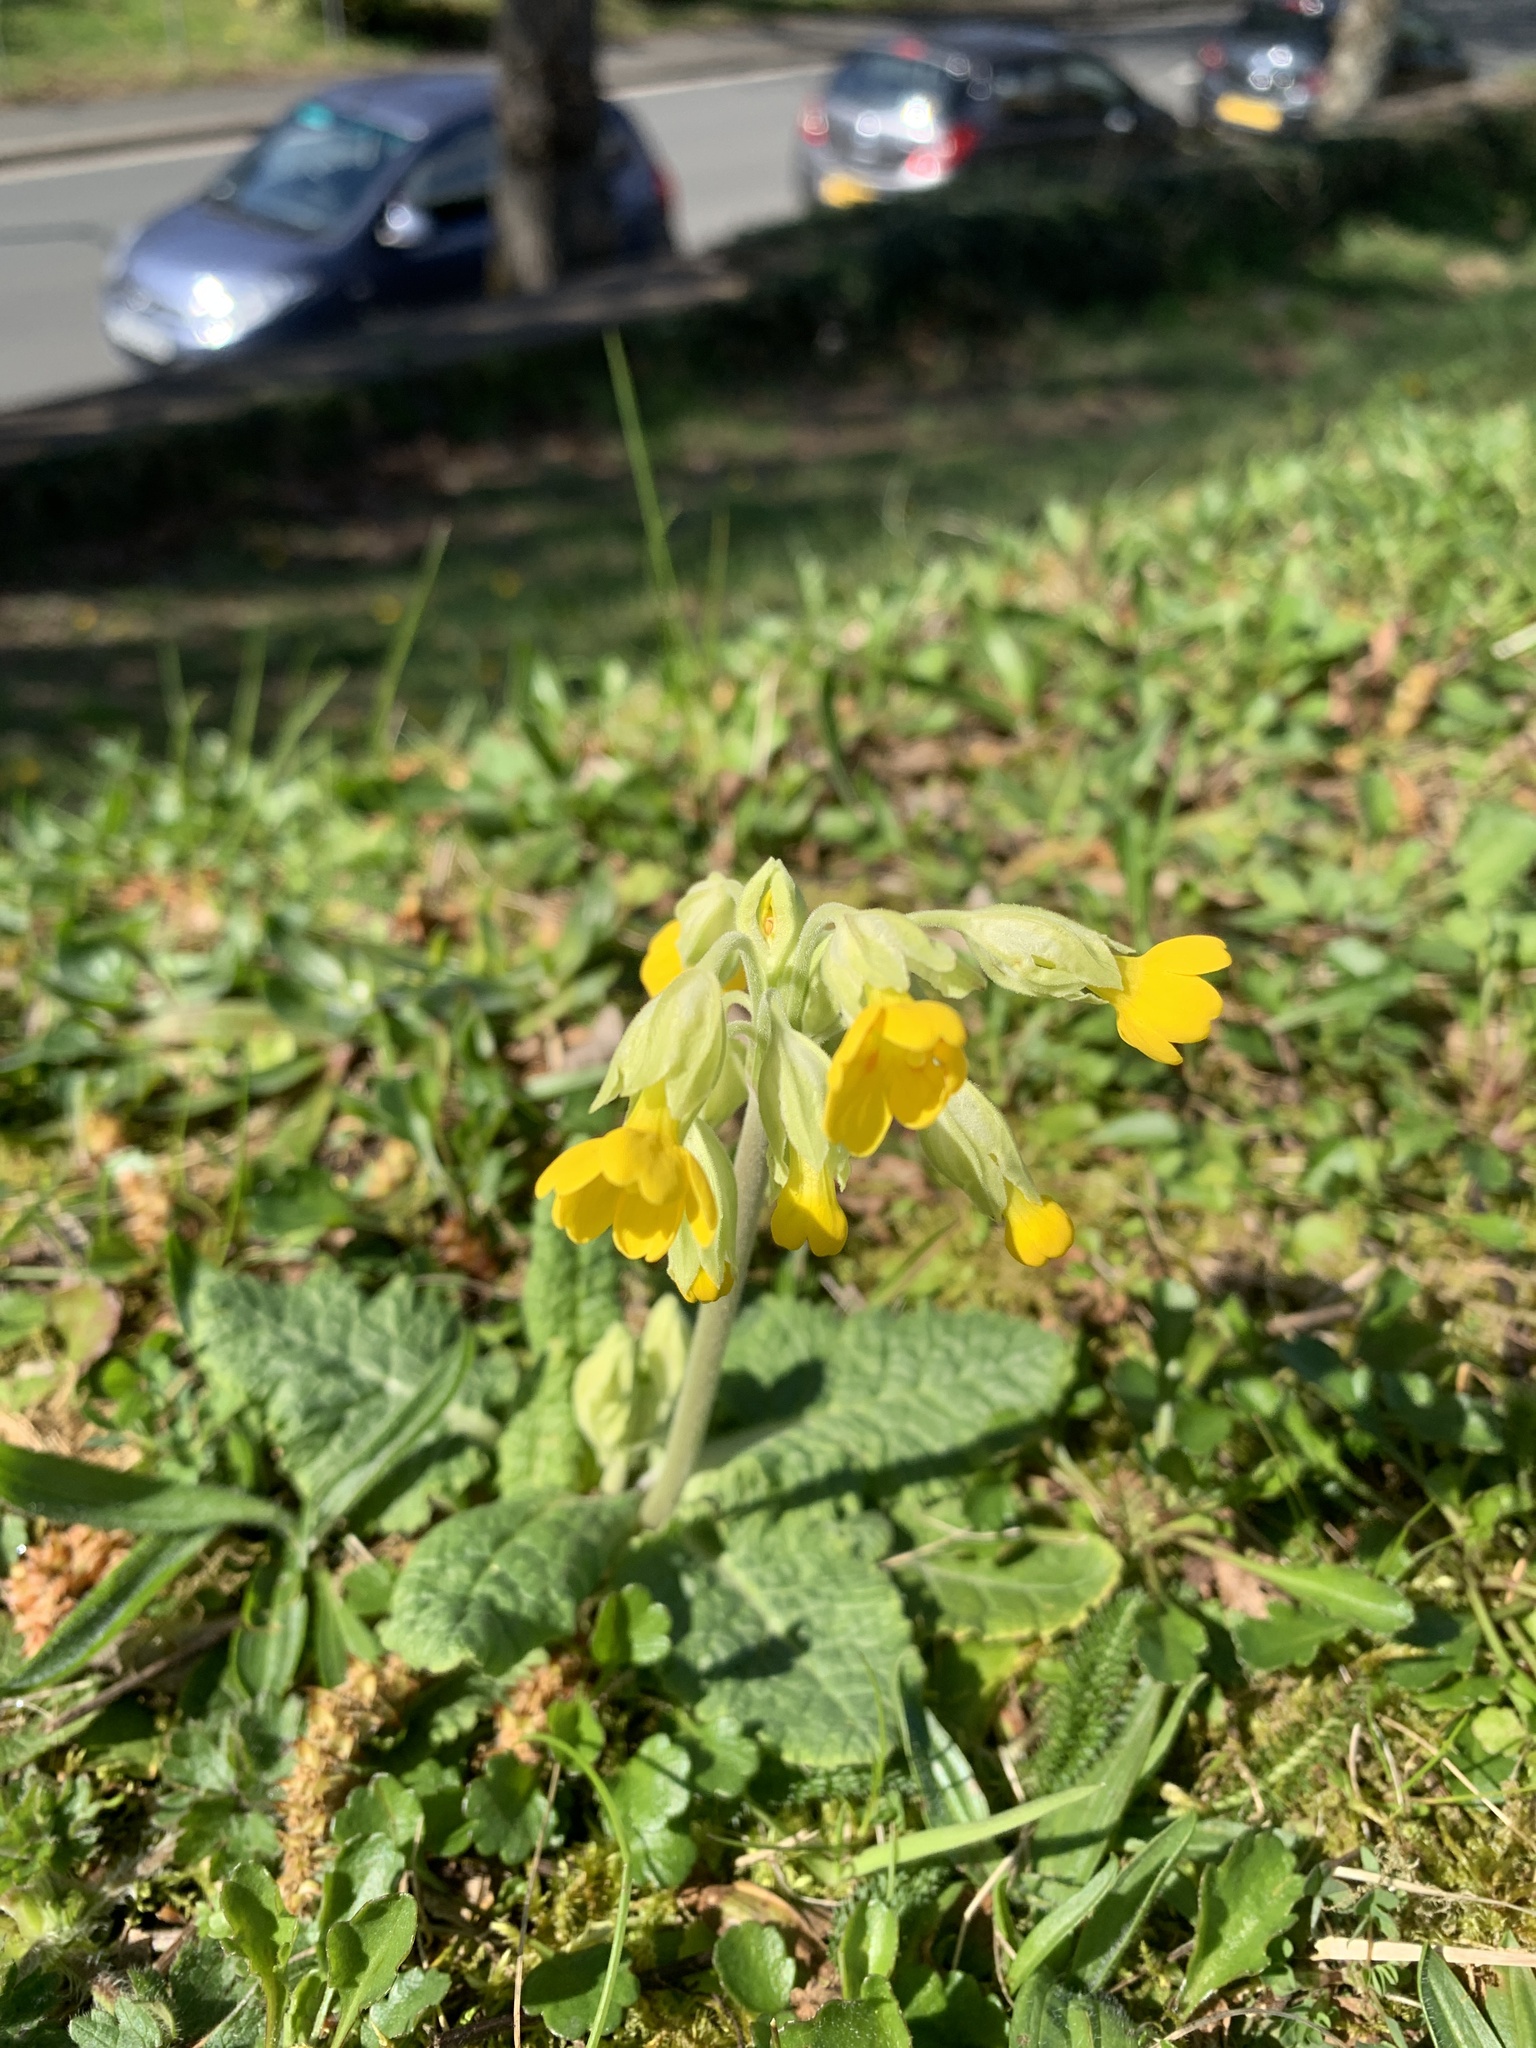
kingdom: Plantae
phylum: Tracheophyta
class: Magnoliopsida
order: Ericales
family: Primulaceae
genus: Primula
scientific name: Primula veris
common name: Cowslip
